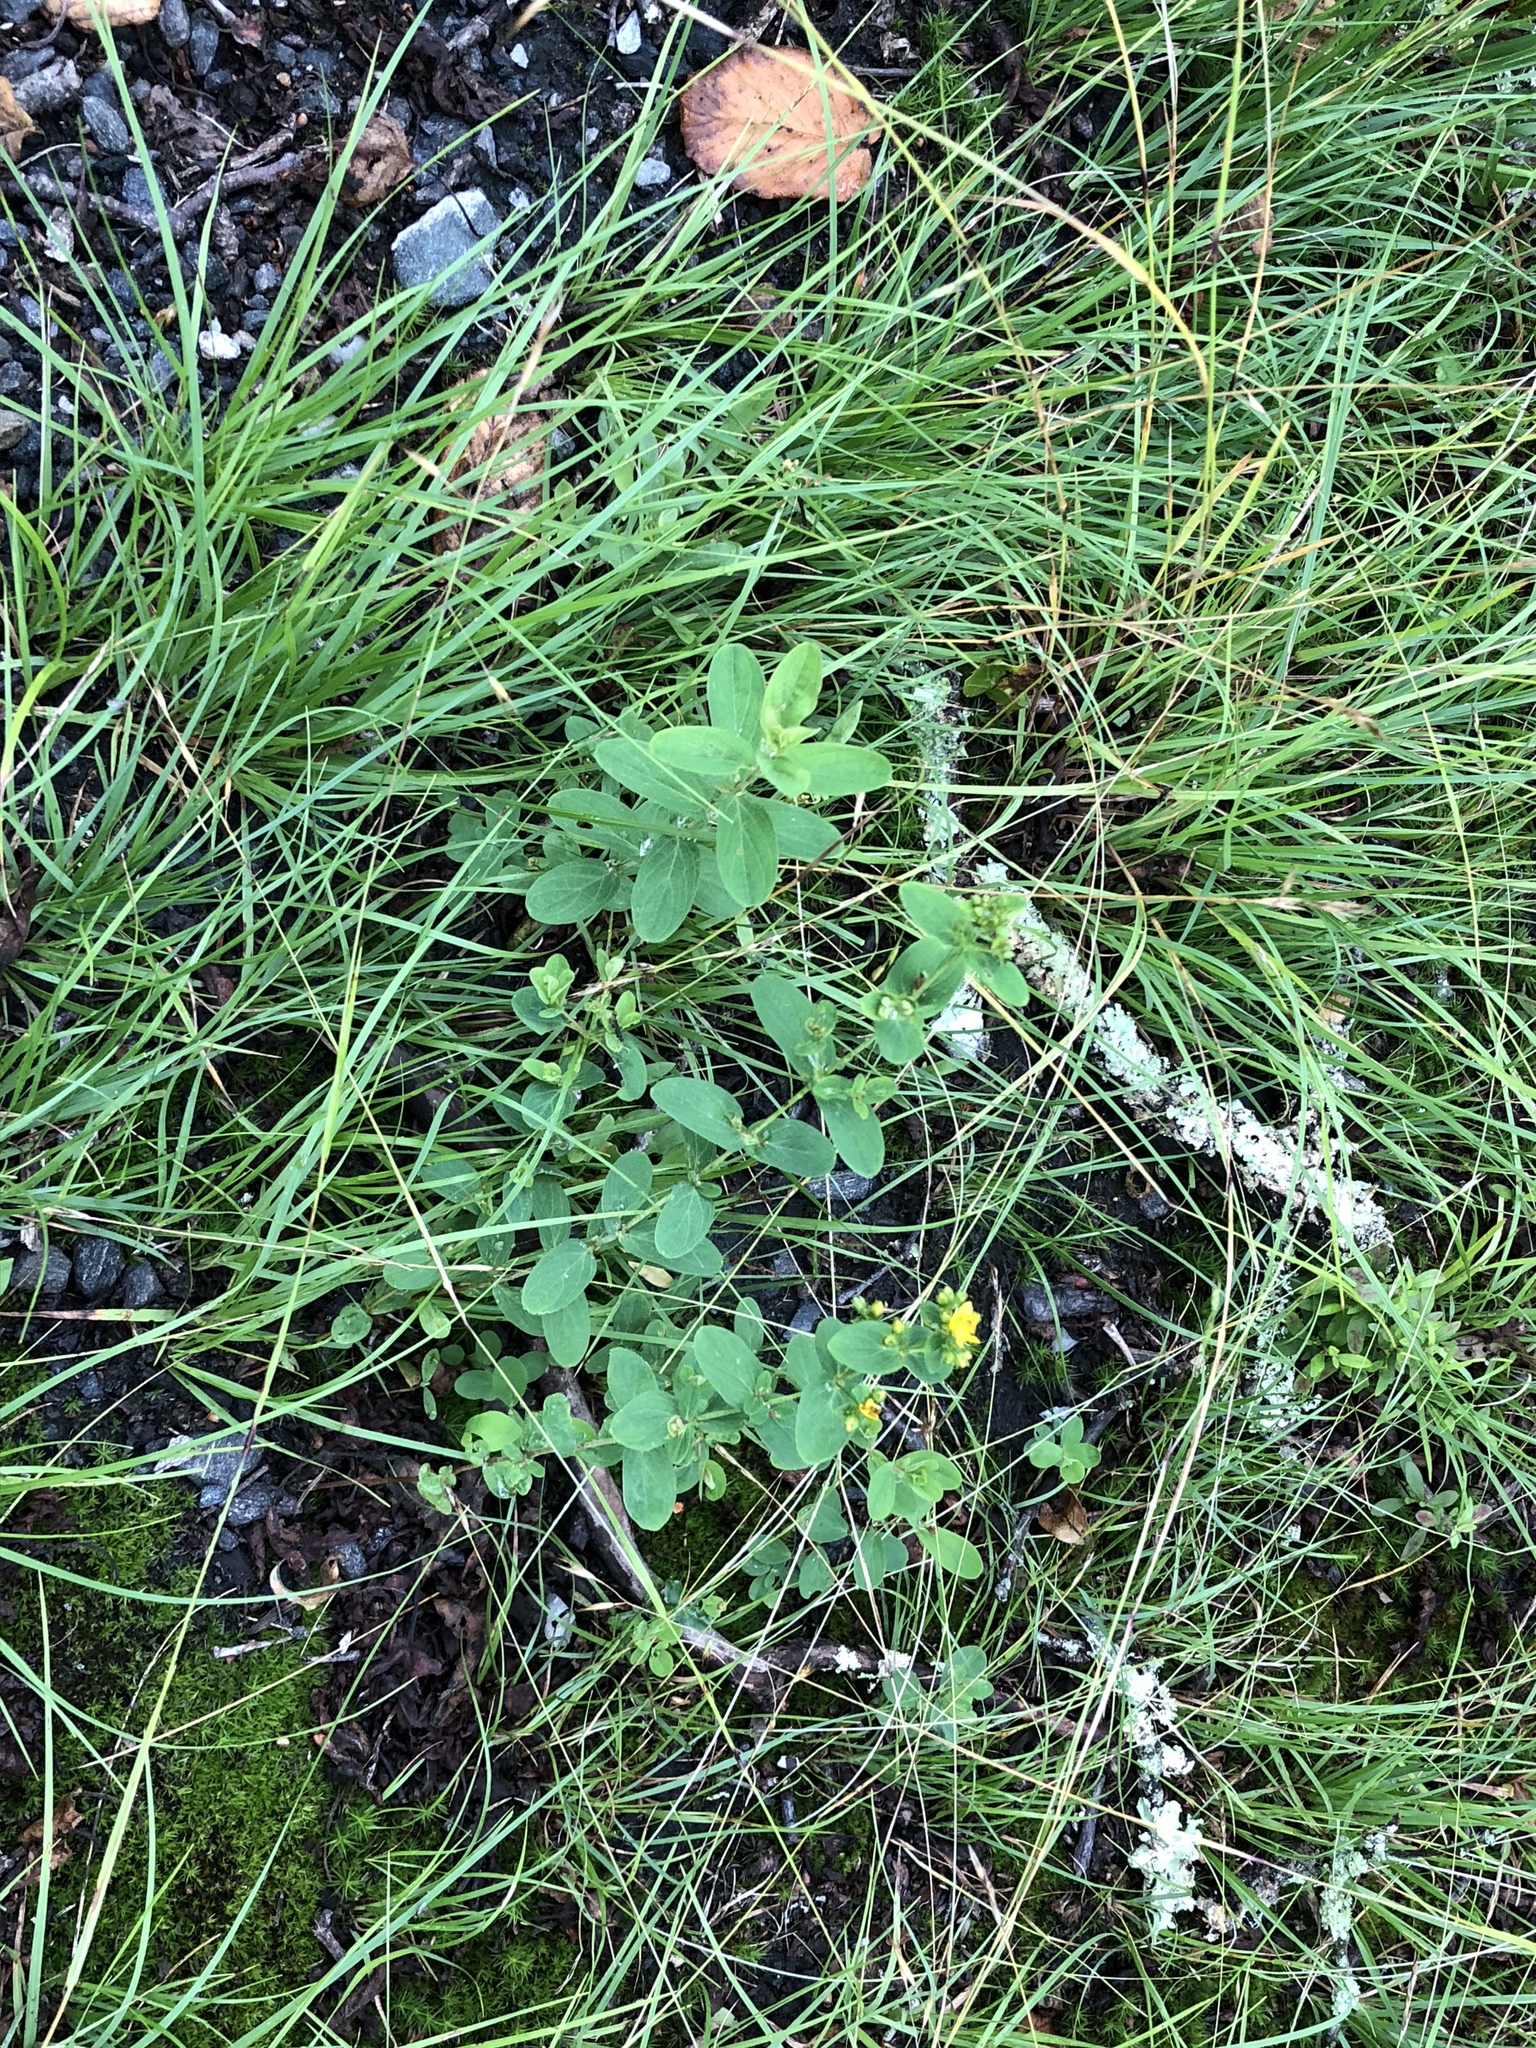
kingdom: Plantae
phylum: Tracheophyta
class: Magnoliopsida
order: Malpighiales
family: Hypericaceae
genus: Hypericum
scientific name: Hypericum punctatum
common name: Spotted st. john's-wort
